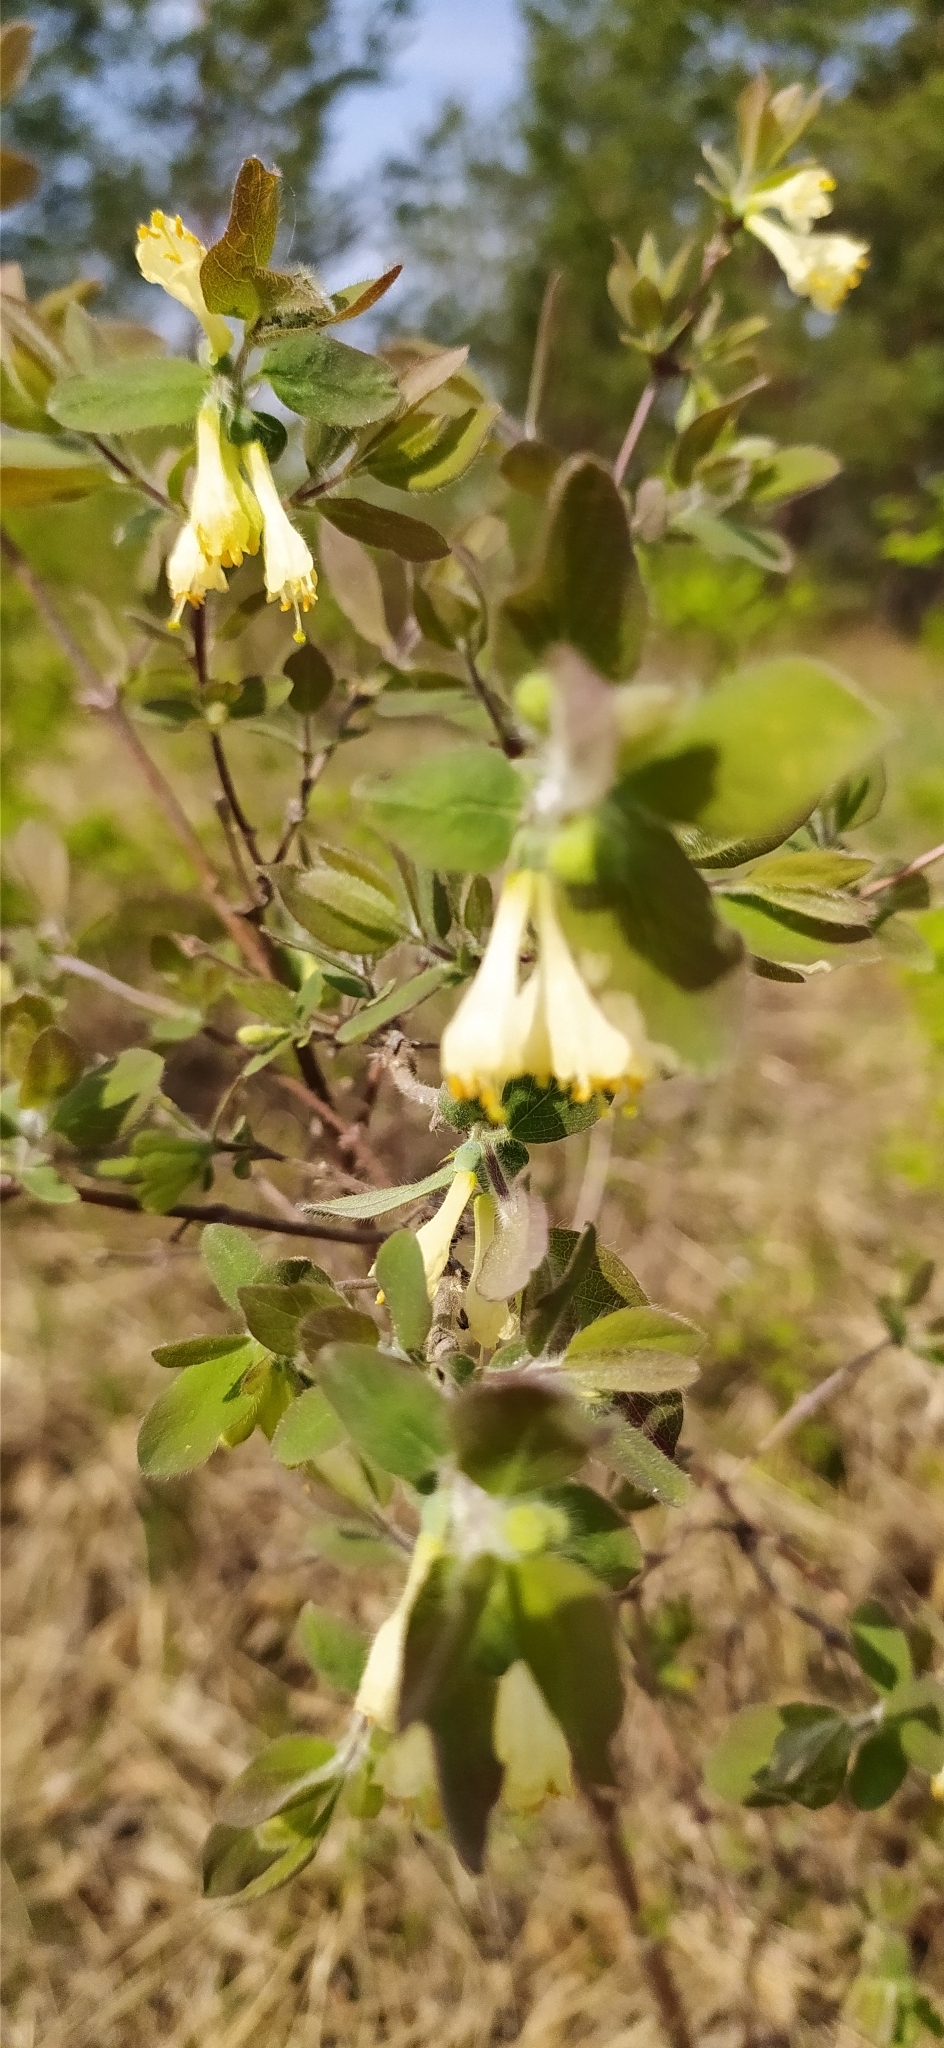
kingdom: Plantae
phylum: Tracheophyta
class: Magnoliopsida
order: Dipsacales
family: Caprifoliaceae
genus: Lonicera
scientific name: Lonicera caerulea
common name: Blue honeysuckle
